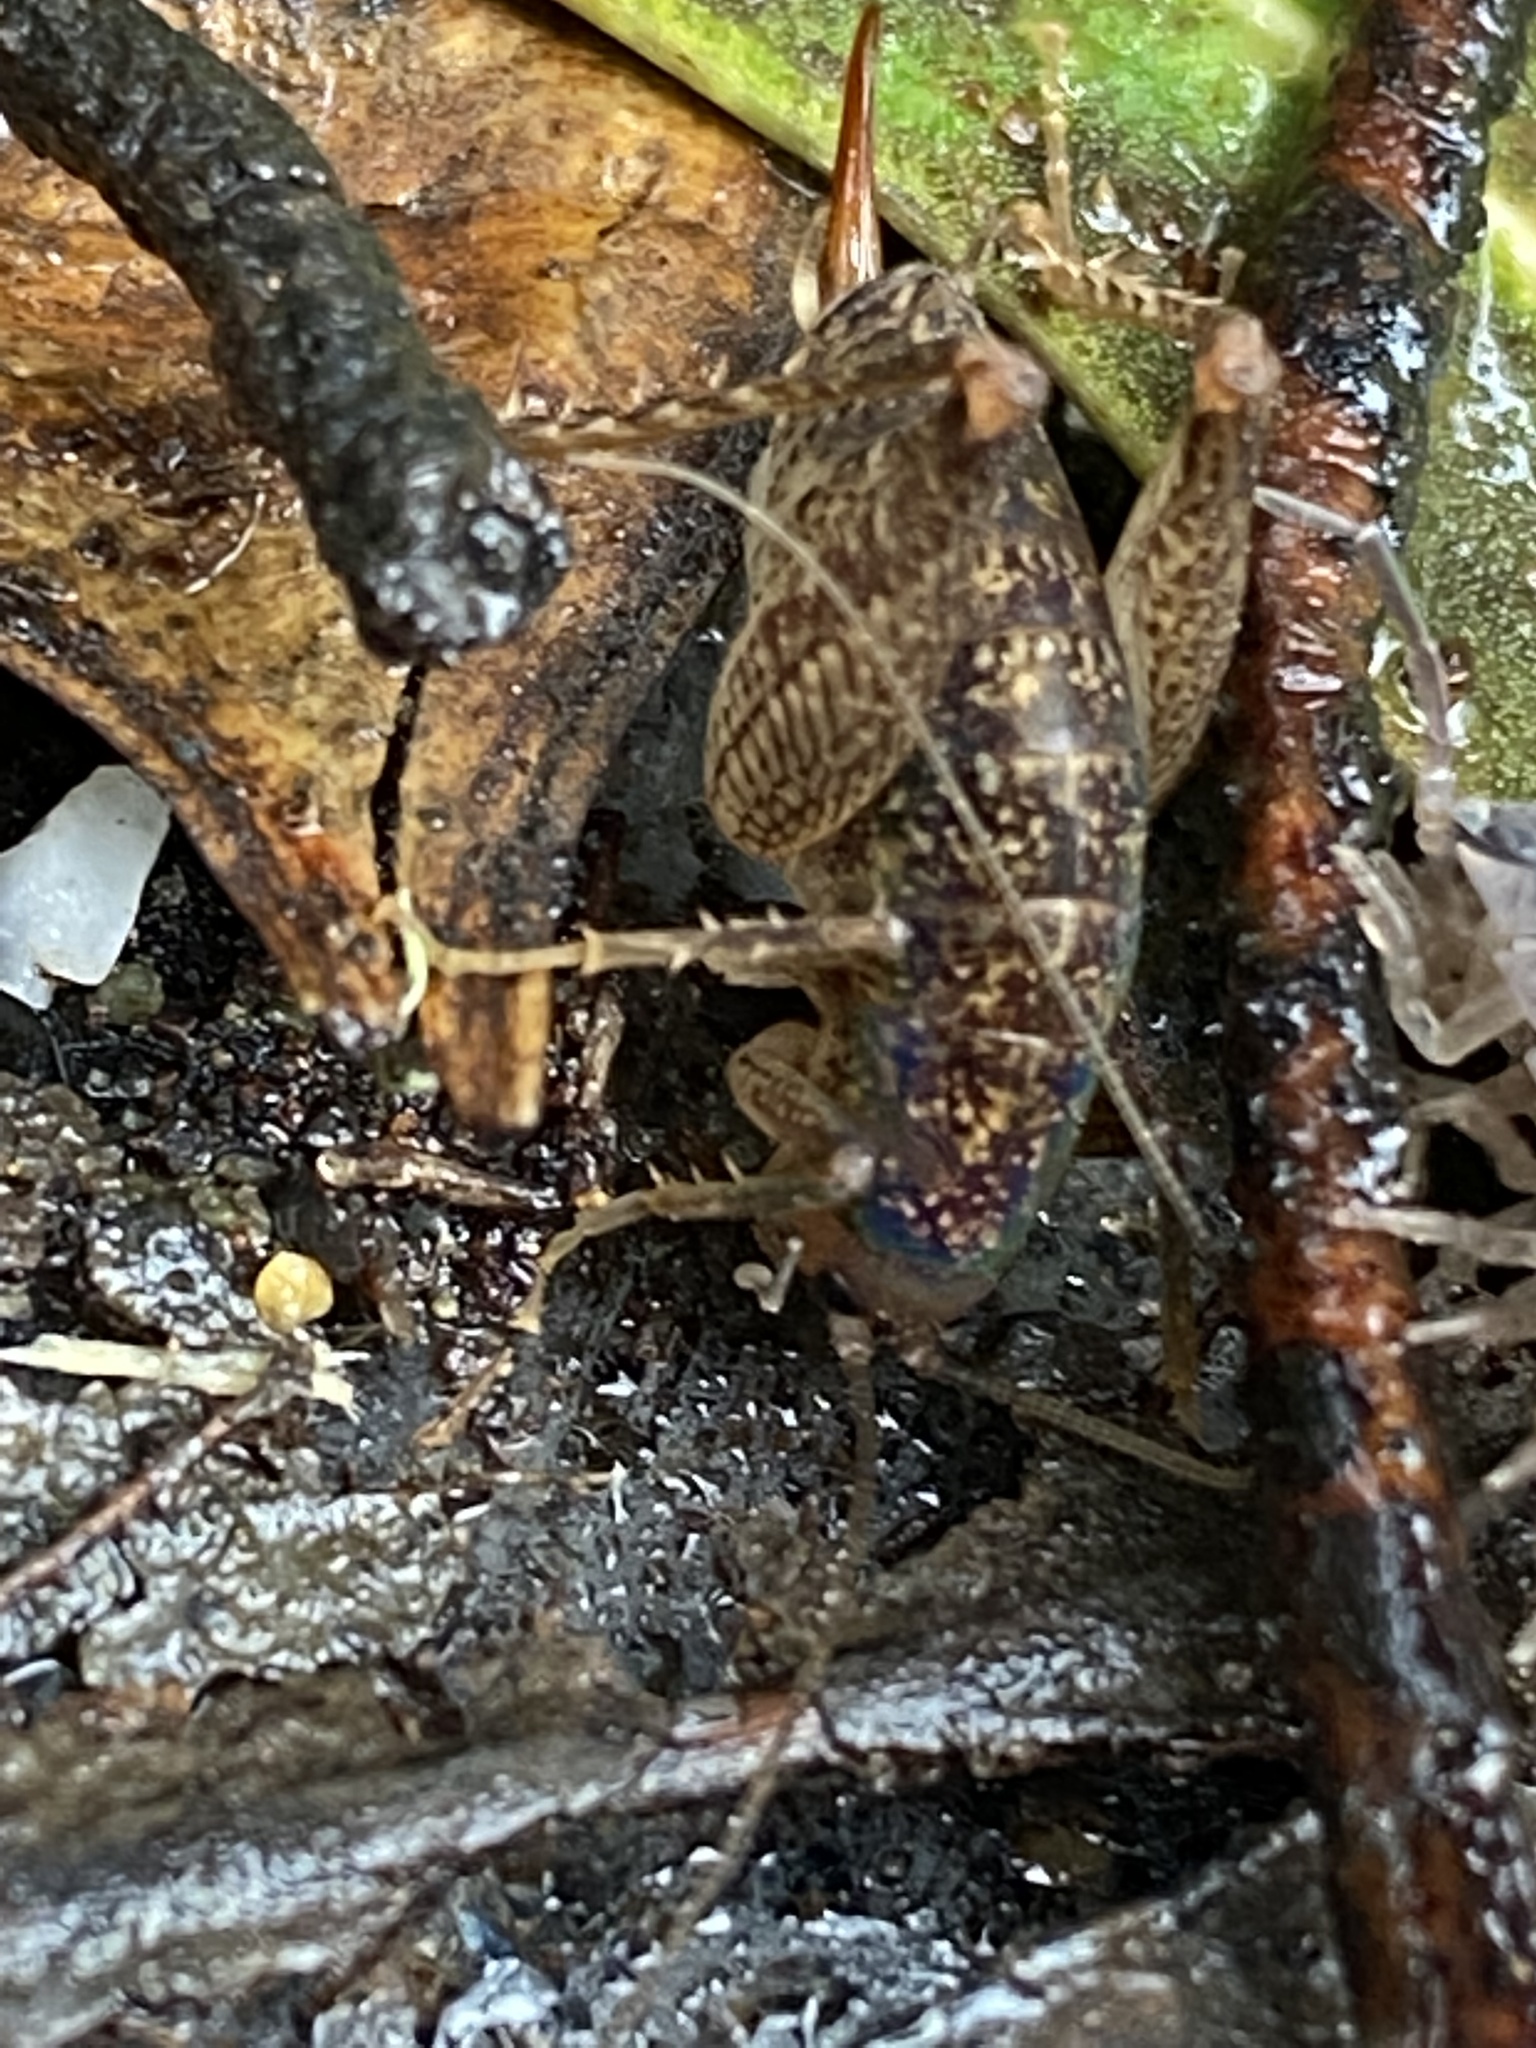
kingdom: Animalia
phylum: Arthropoda
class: Insecta
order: Orthoptera
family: Rhaphidophoridae
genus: Pristoceuthophilus
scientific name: Pristoceuthophilus
